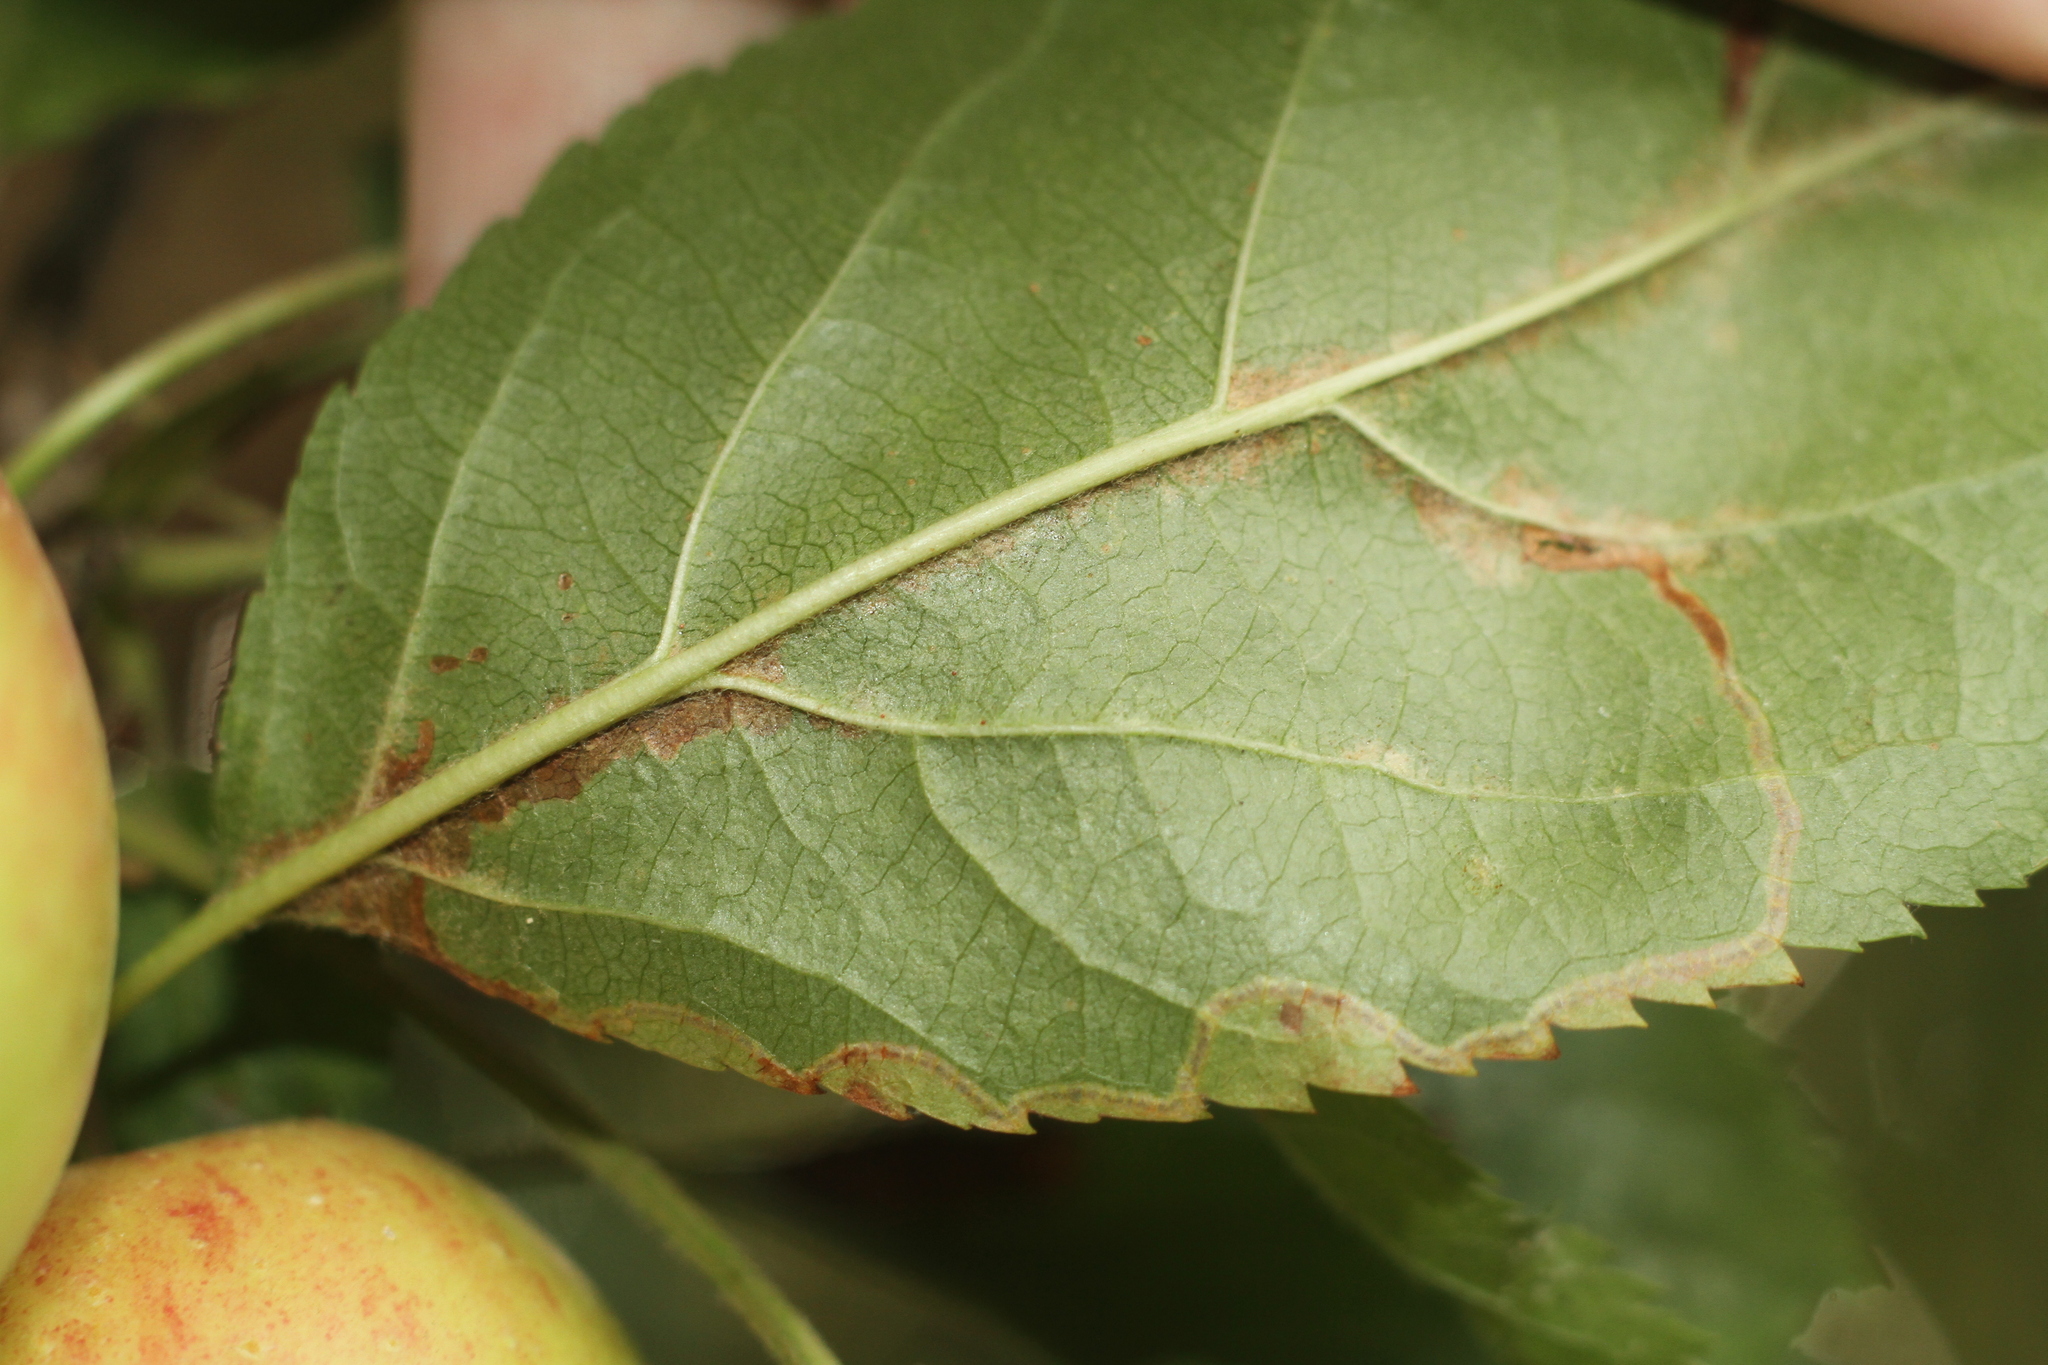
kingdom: Animalia
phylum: Arthropoda
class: Insecta
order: Lepidoptera
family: Lyonetiidae
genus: Lyonetia
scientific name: Lyonetia clerkella
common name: Apple leaf miner
